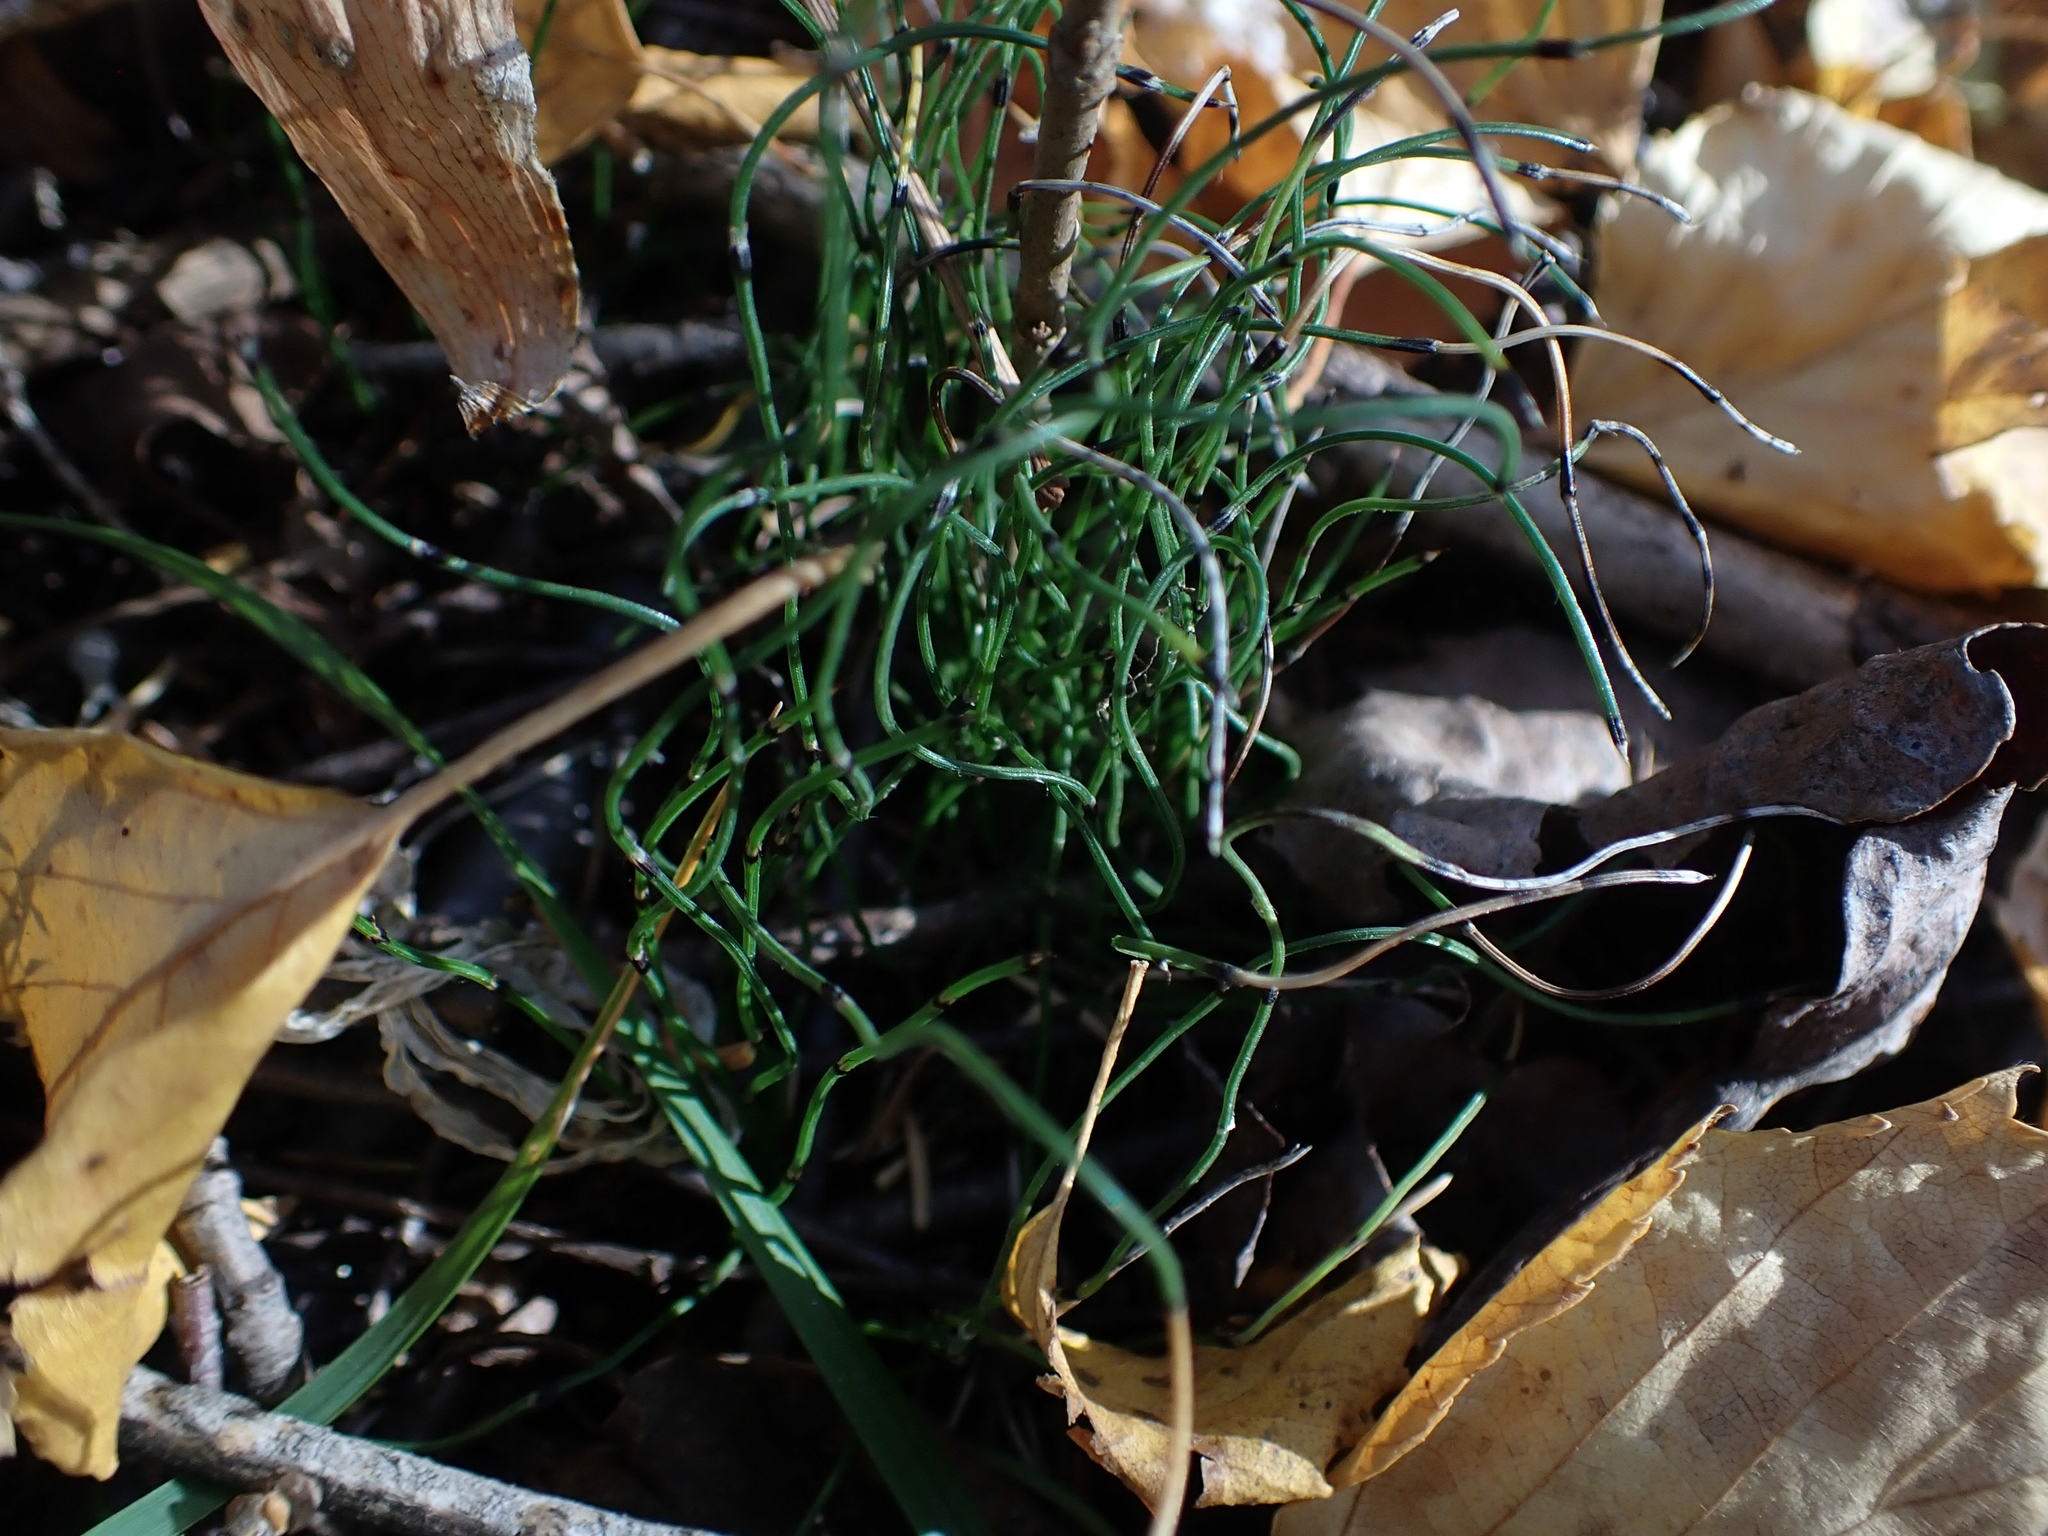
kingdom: Plantae
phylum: Tracheophyta
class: Polypodiopsida
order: Equisetales
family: Equisetaceae
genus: Equisetum
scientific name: Equisetum scirpoides
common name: Delicate horsetail
